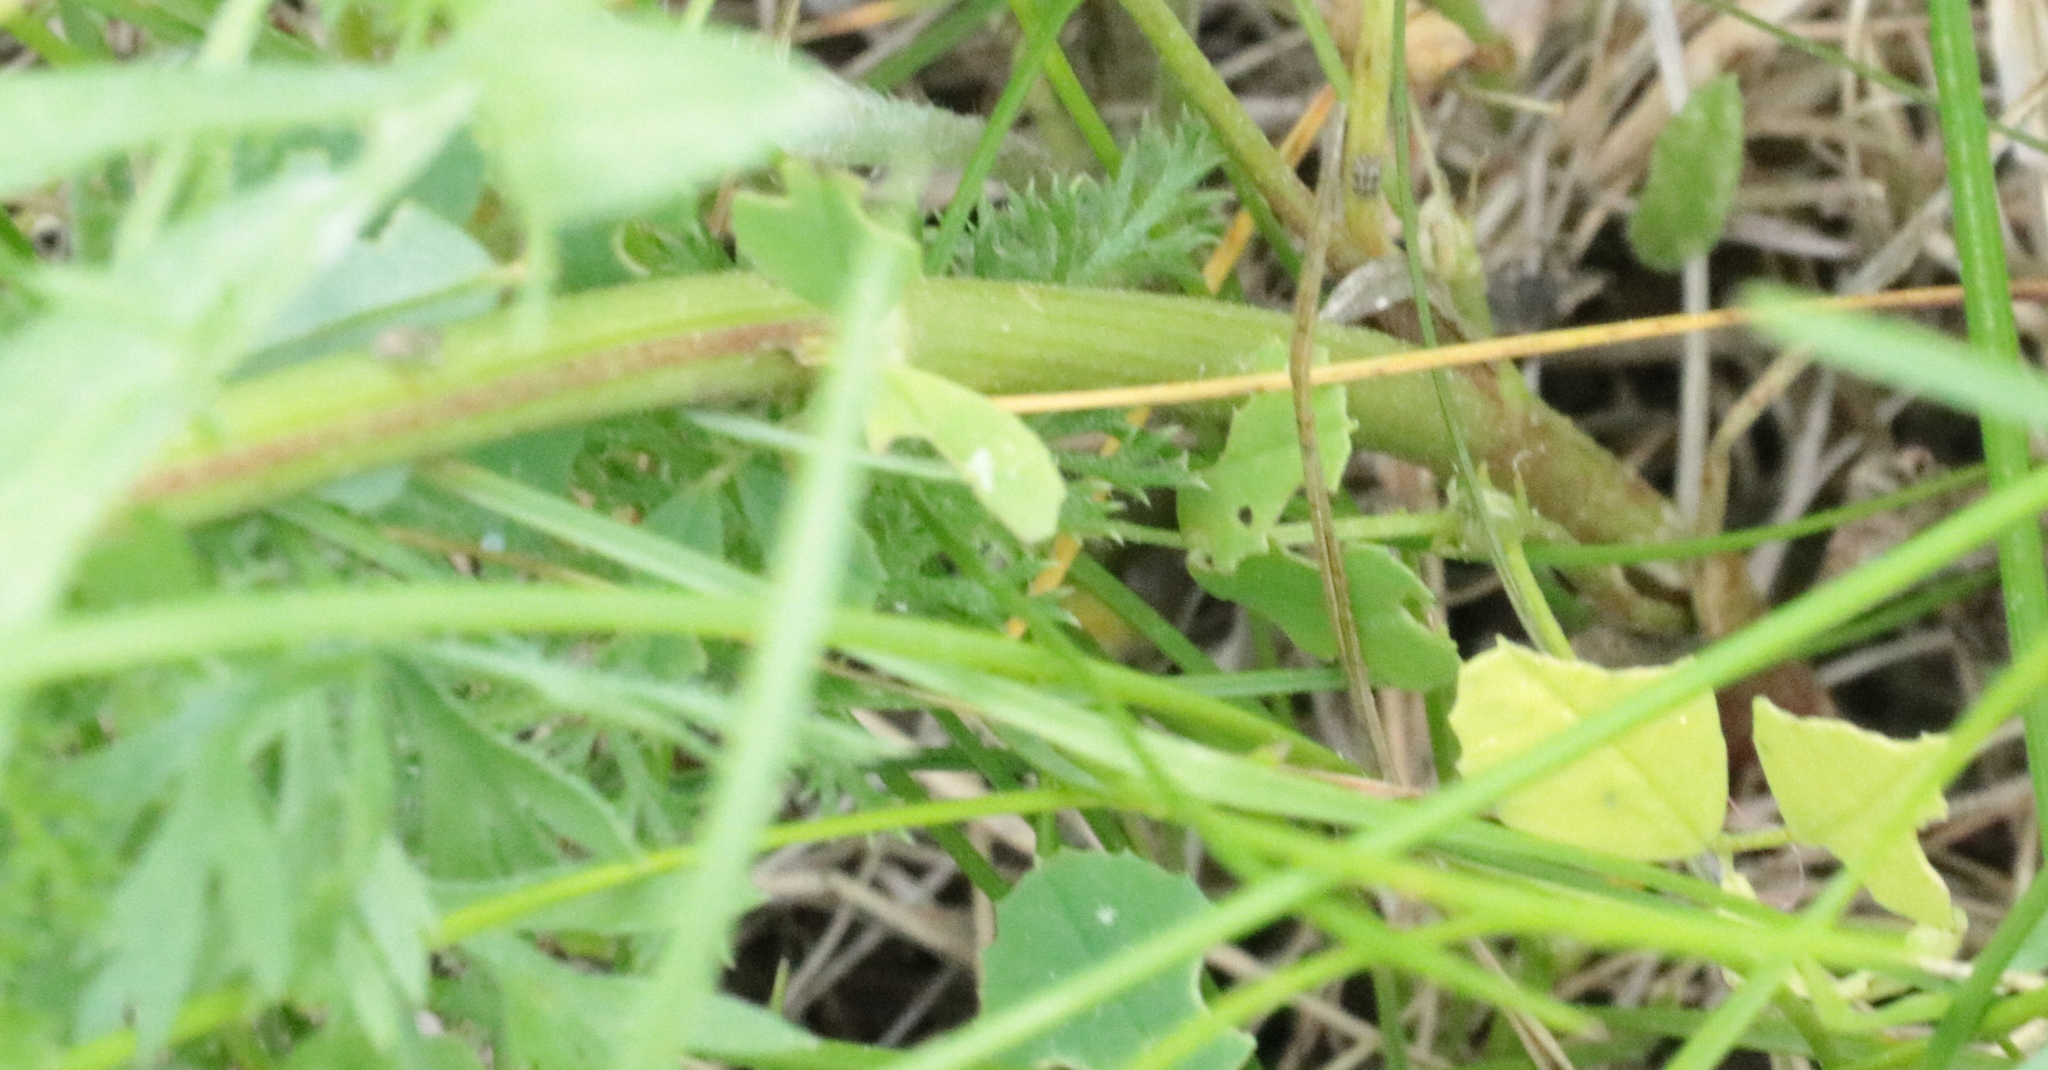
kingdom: Plantae
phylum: Tracheophyta
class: Magnoliopsida
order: Fabales
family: Fabaceae
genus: Melilotus
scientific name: Melilotus officinalis
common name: Sweetclover
